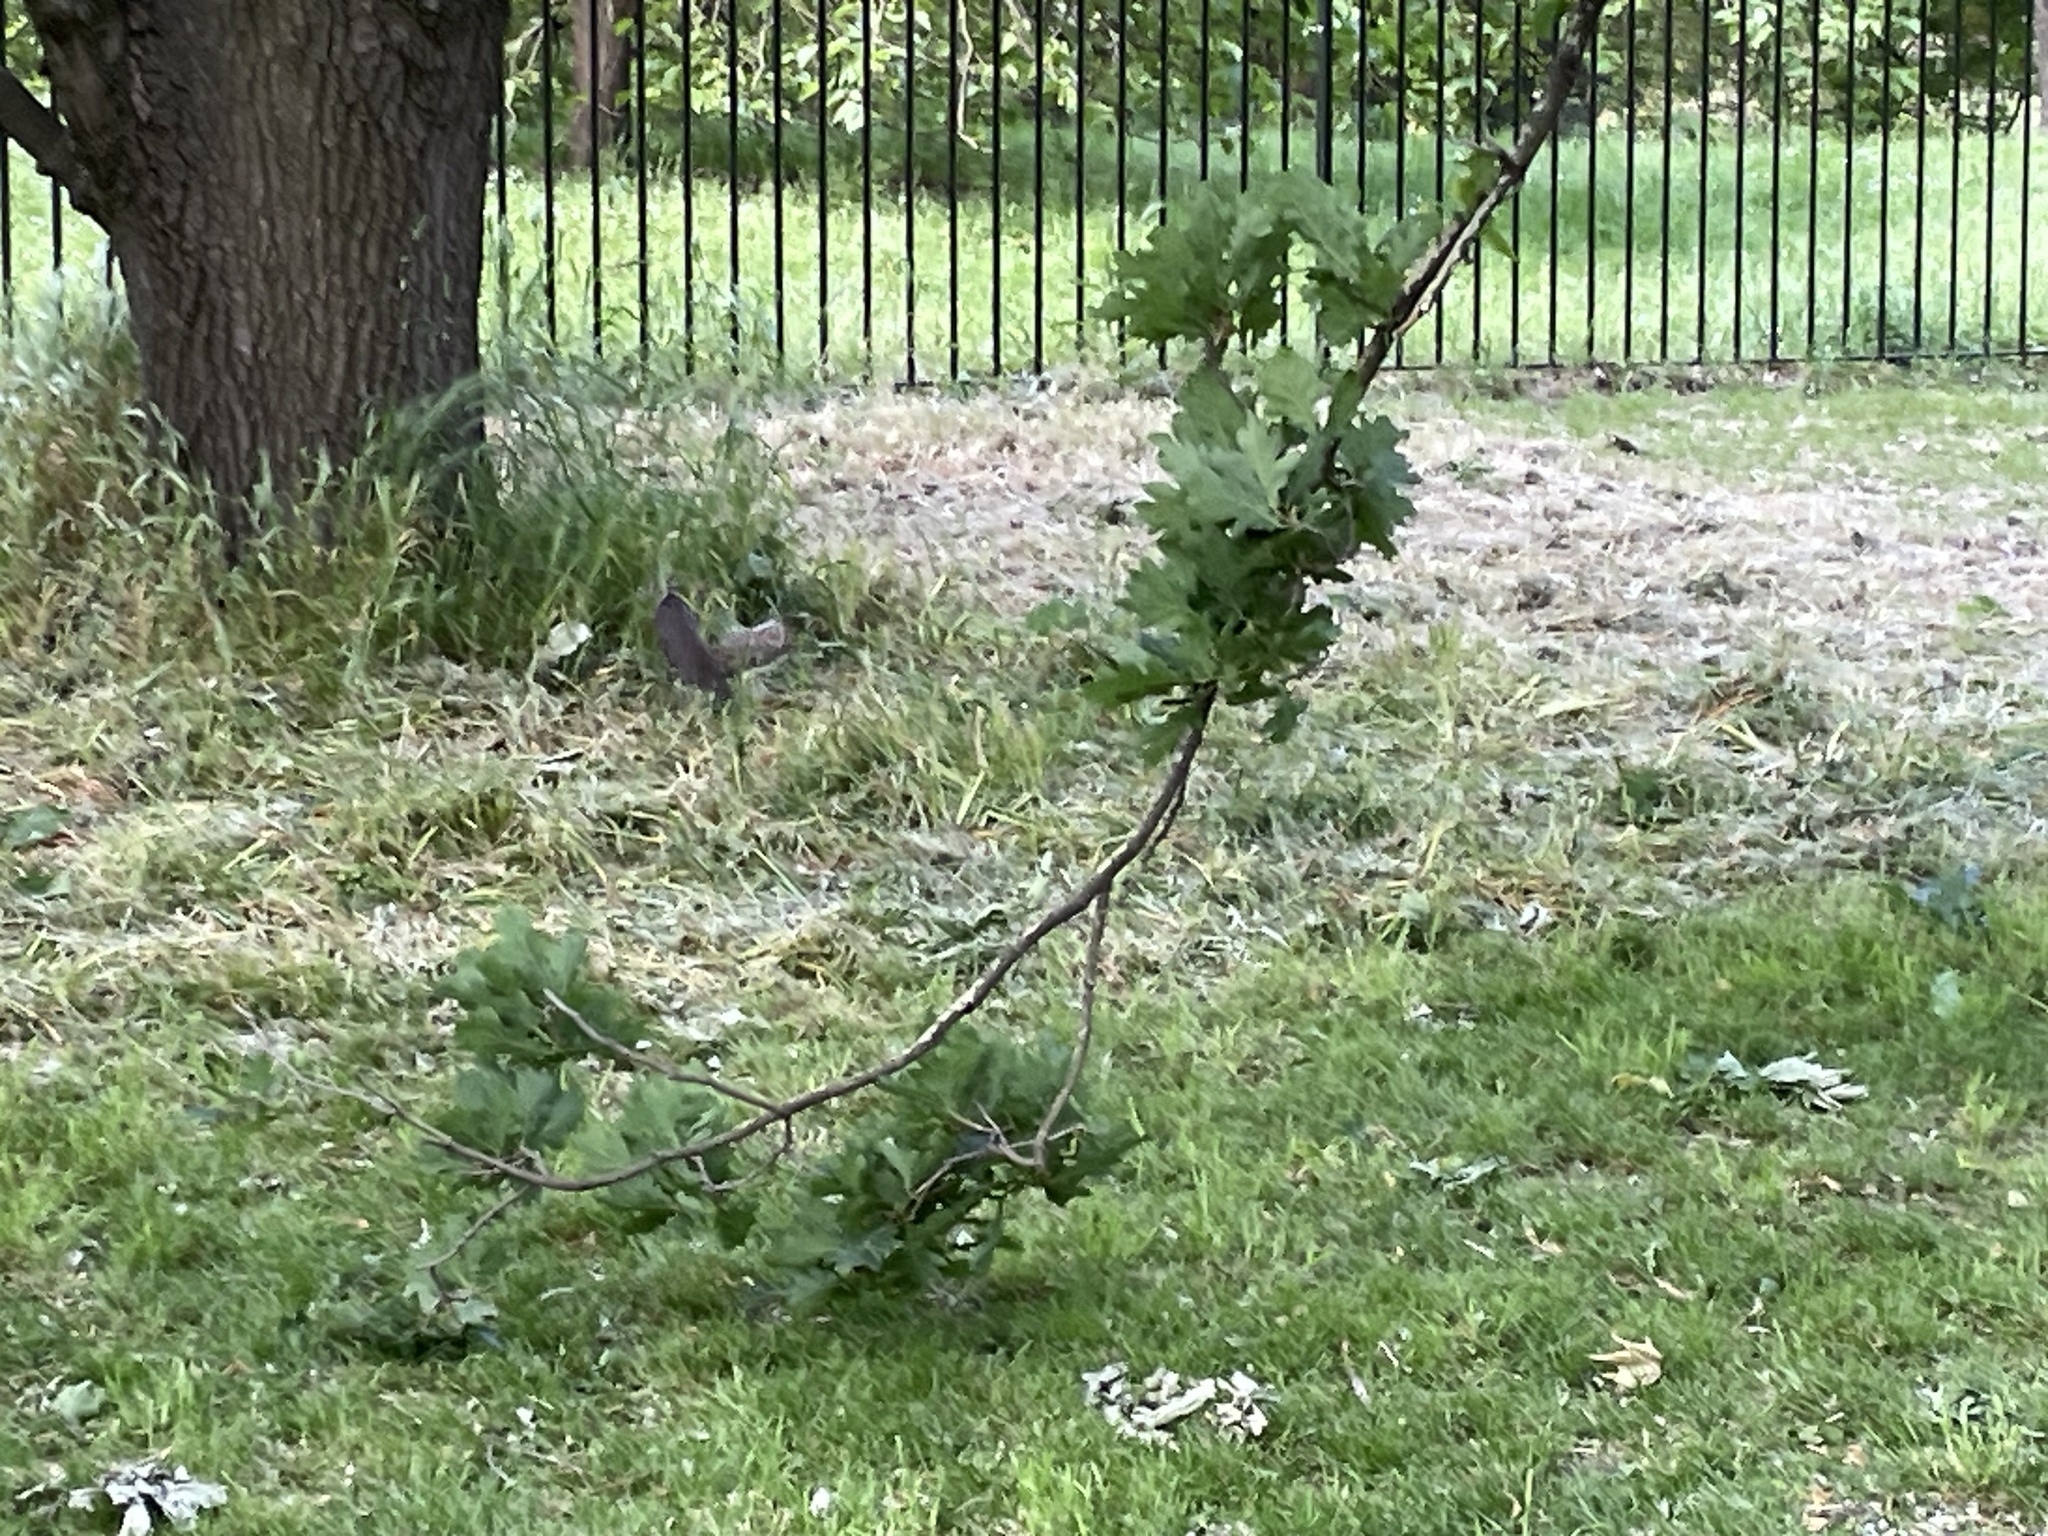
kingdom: Animalia
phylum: Chordata
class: Mammalia
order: Rodentia
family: Sciuridae
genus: Sciurus
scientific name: Sciurus carolinensis
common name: Eastern gray squirrel
